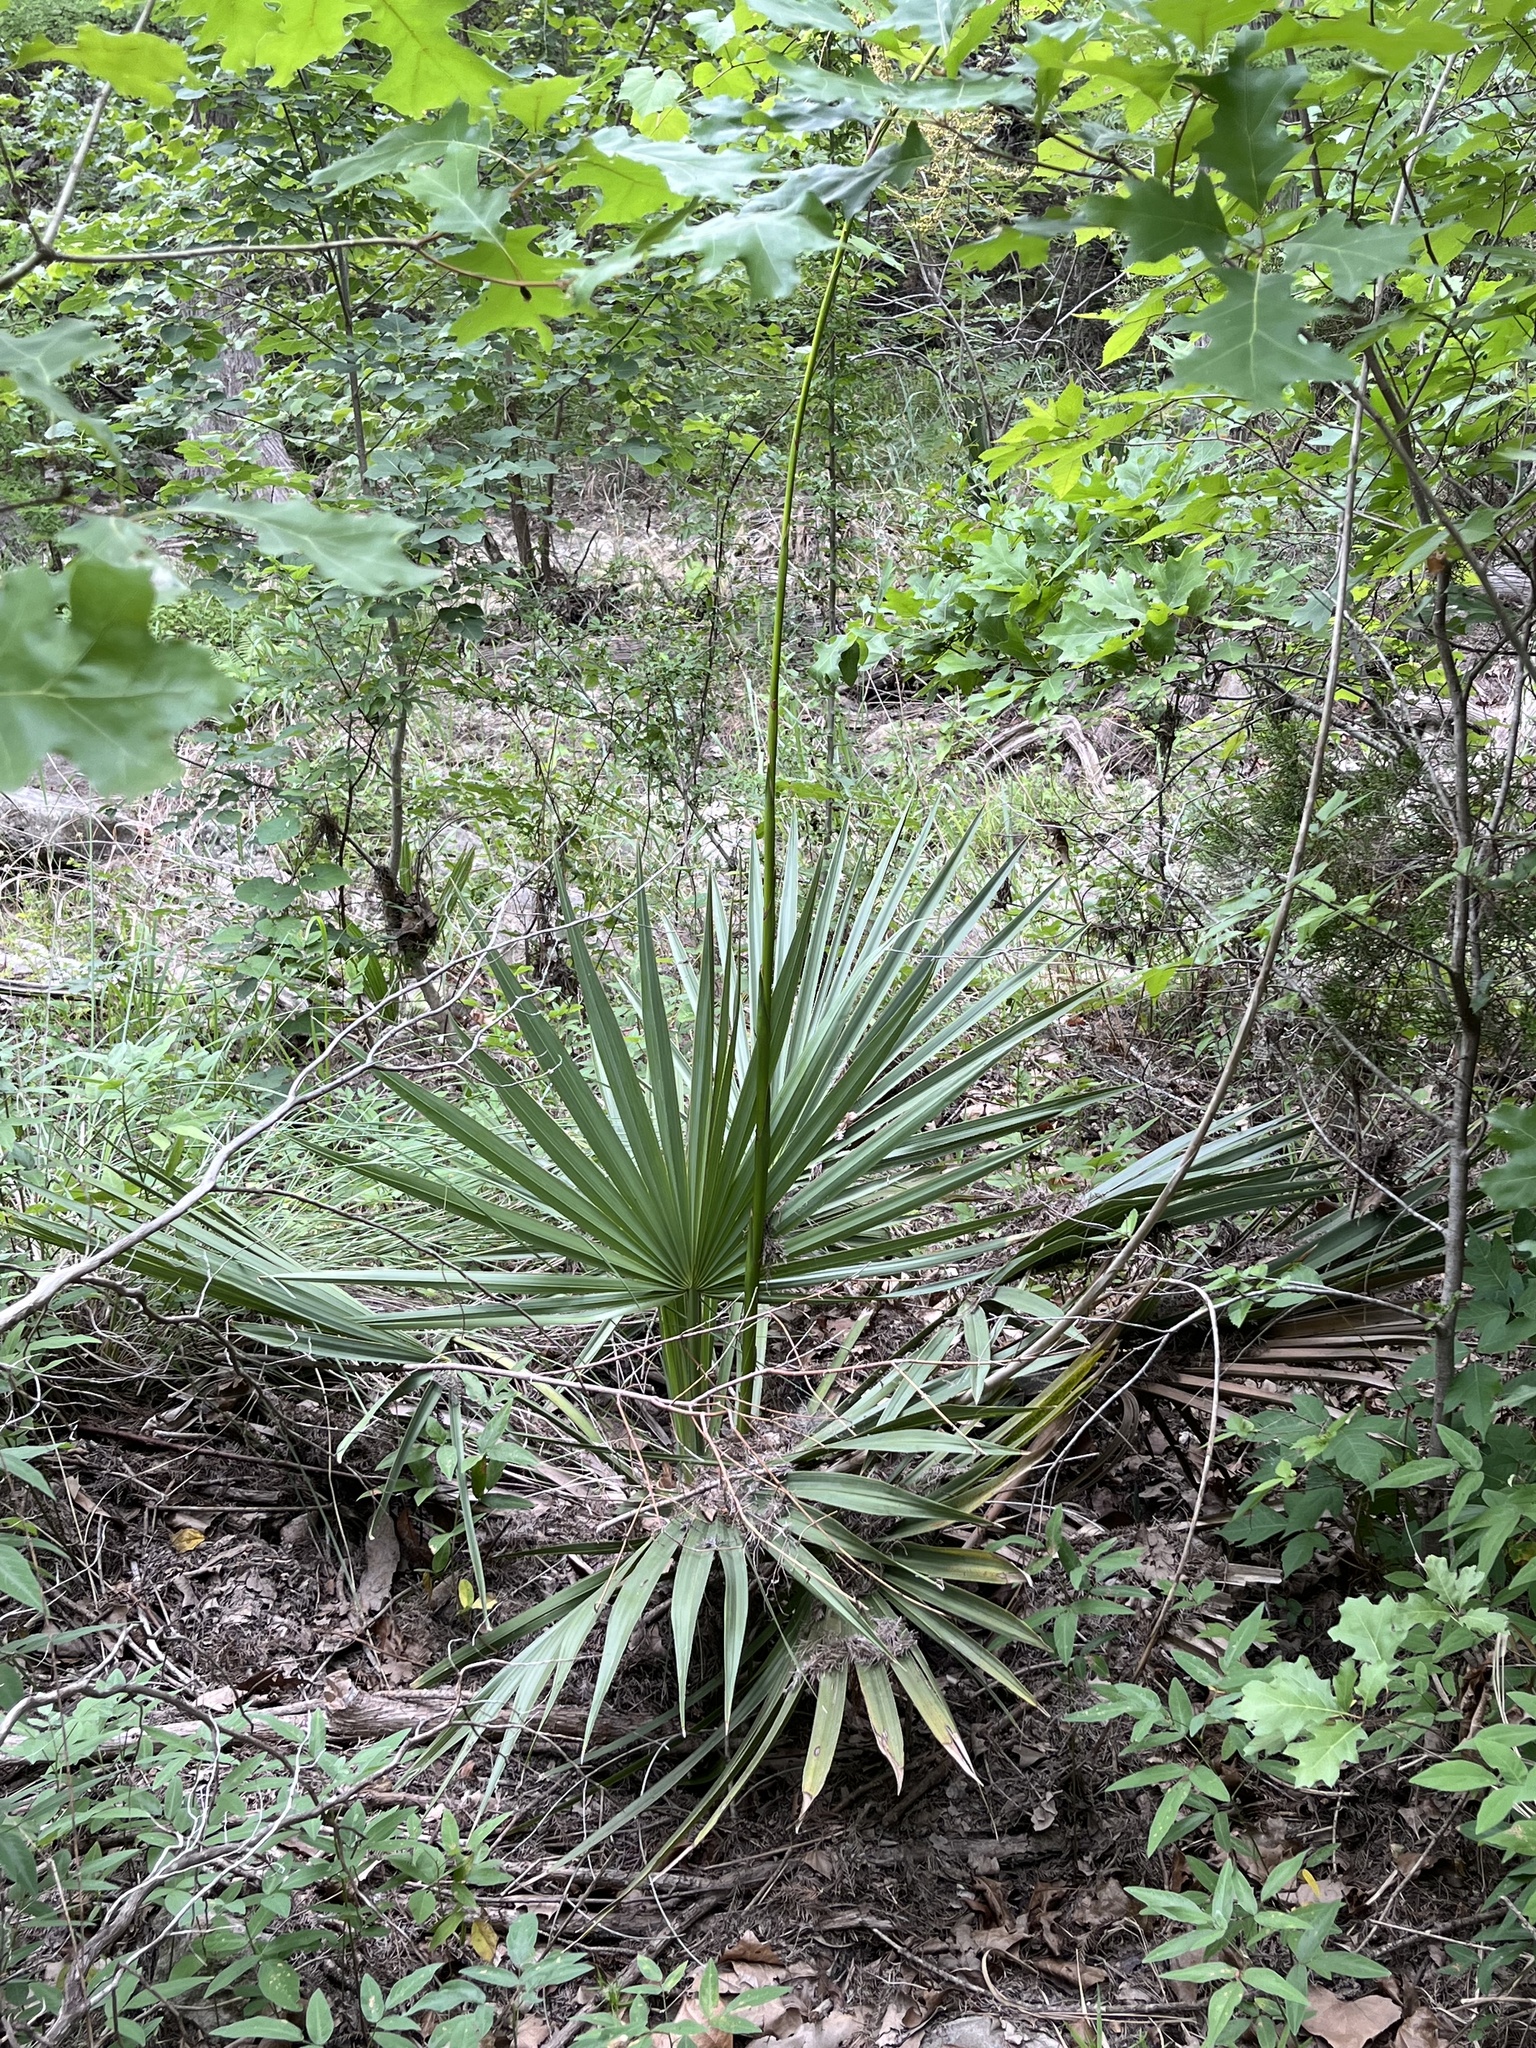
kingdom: Plantae
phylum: Tracheophyta
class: Liliopsida
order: Arecales
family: Arecaceae
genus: Sabal
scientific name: Sabal minor
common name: Dwarf palmetto
